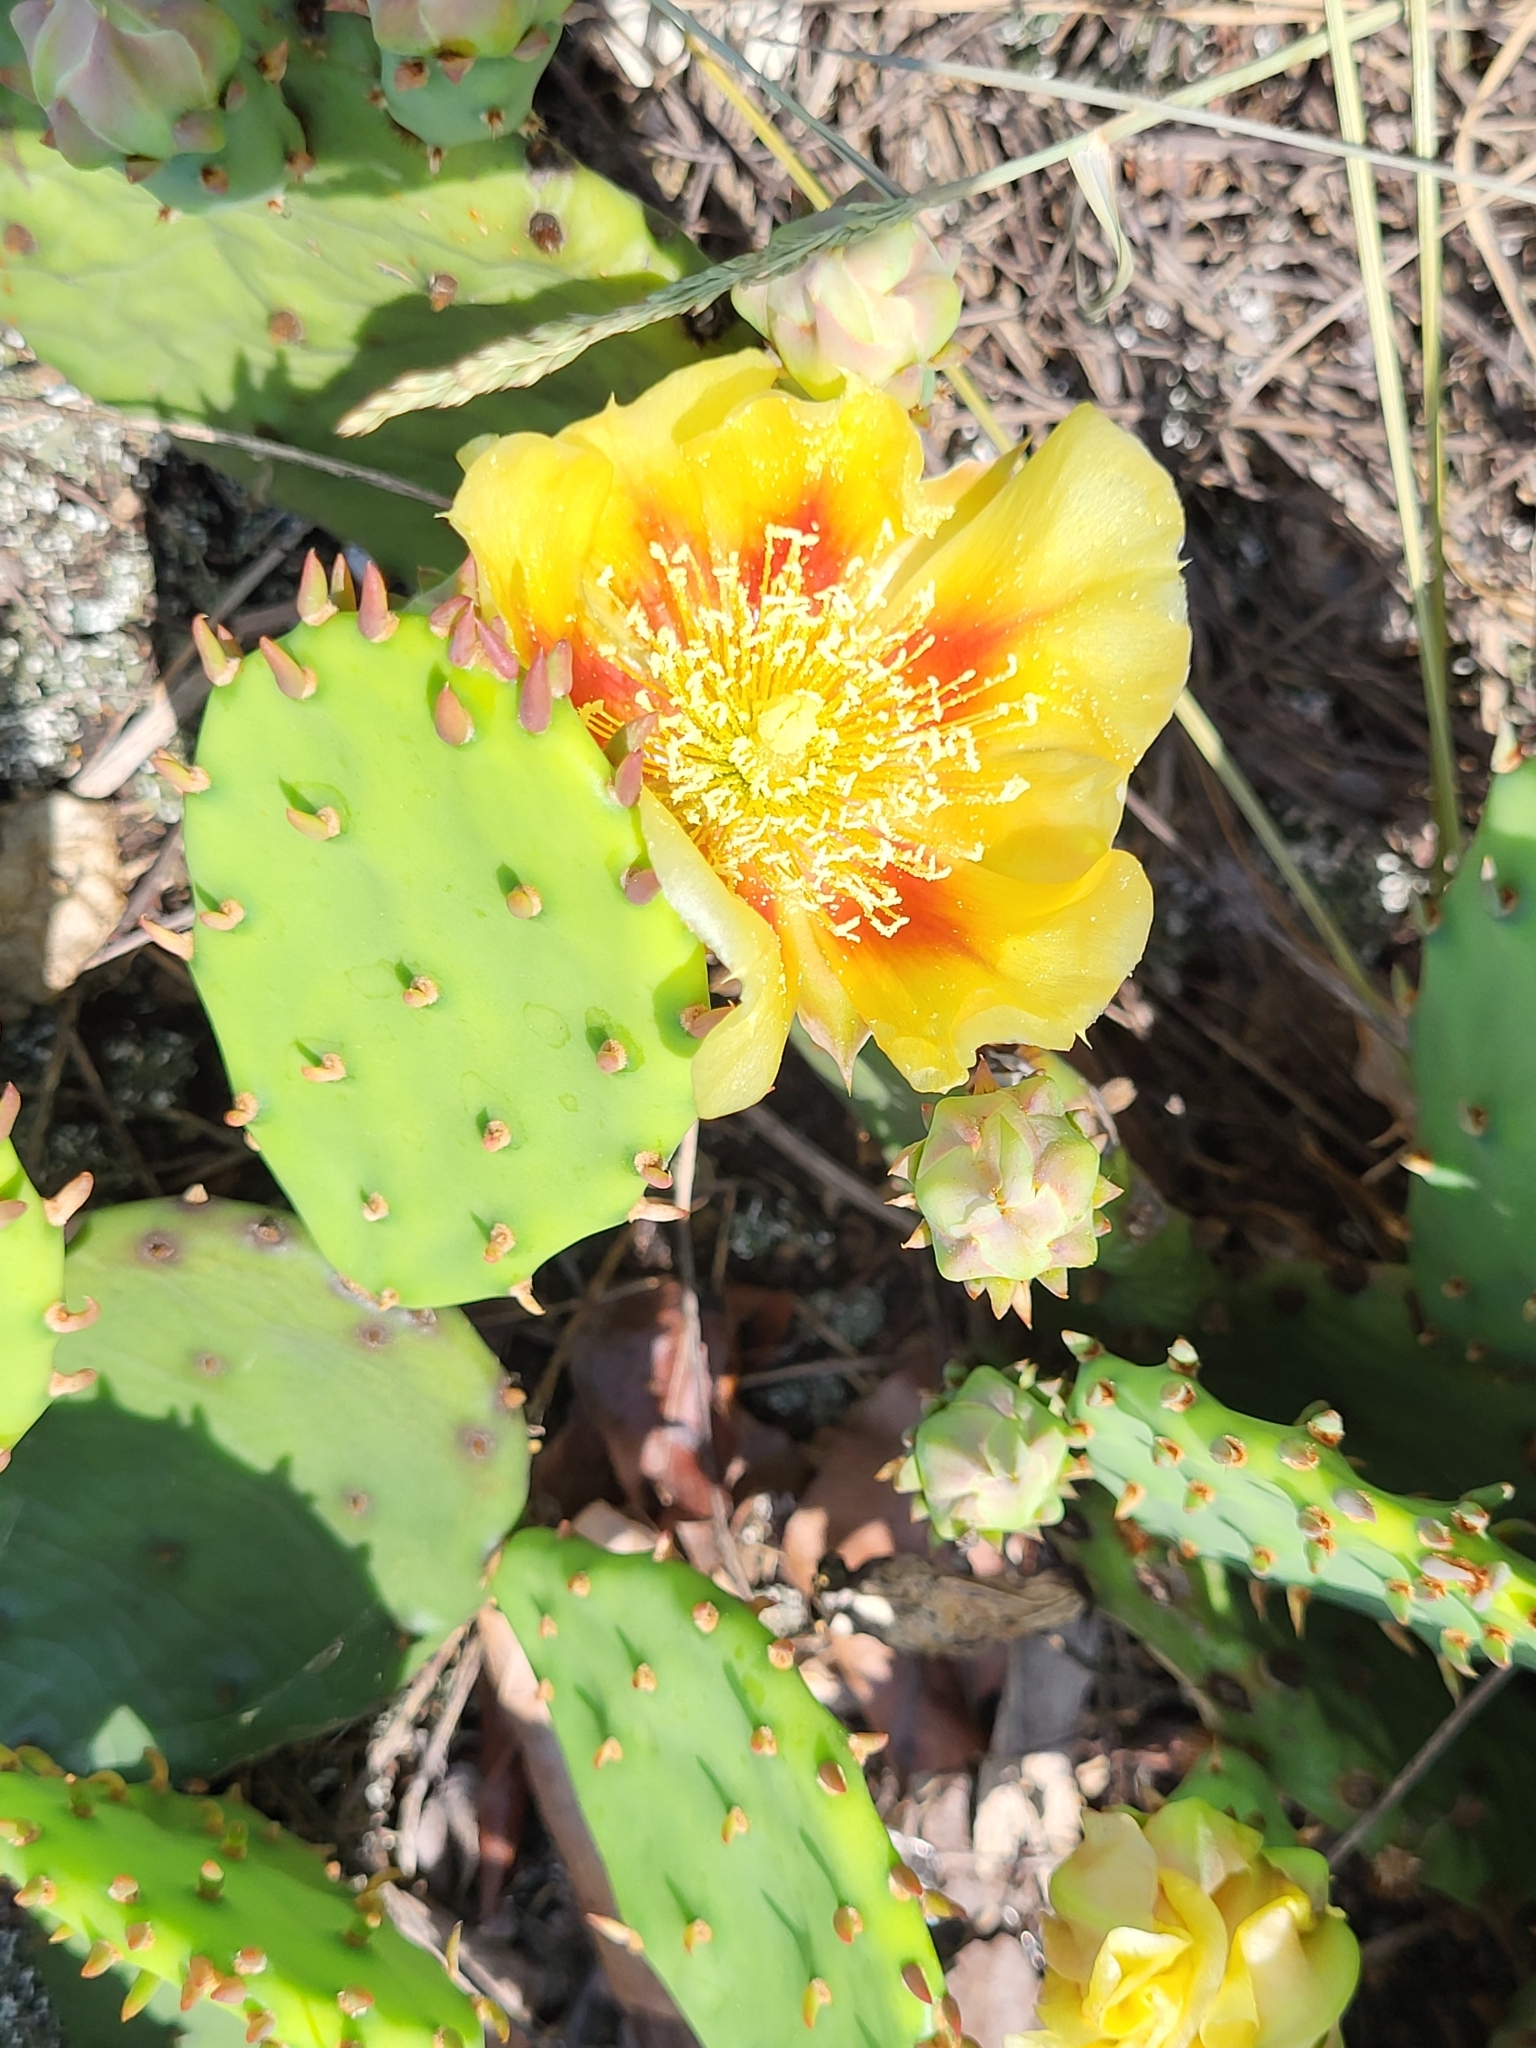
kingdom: Plantae
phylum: Tracheophyta
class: Magnoliopsida
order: Caryophyllales
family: Cactaceae
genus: Opuntia
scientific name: Opuntia humifusa
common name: Eastern prickly-pear
